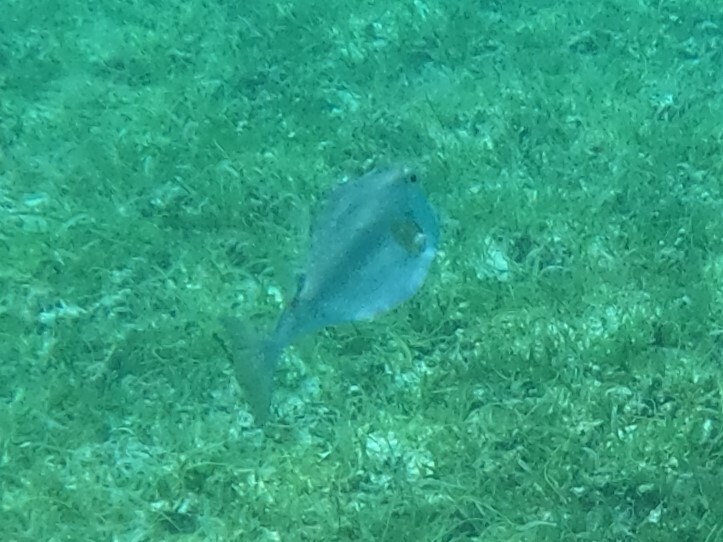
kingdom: Animalia
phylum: Chordata
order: Tetraodontiformes
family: Ostraciidae
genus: Lactophrys
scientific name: Lactophrys trigonus
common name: Buffalo trunkfish
